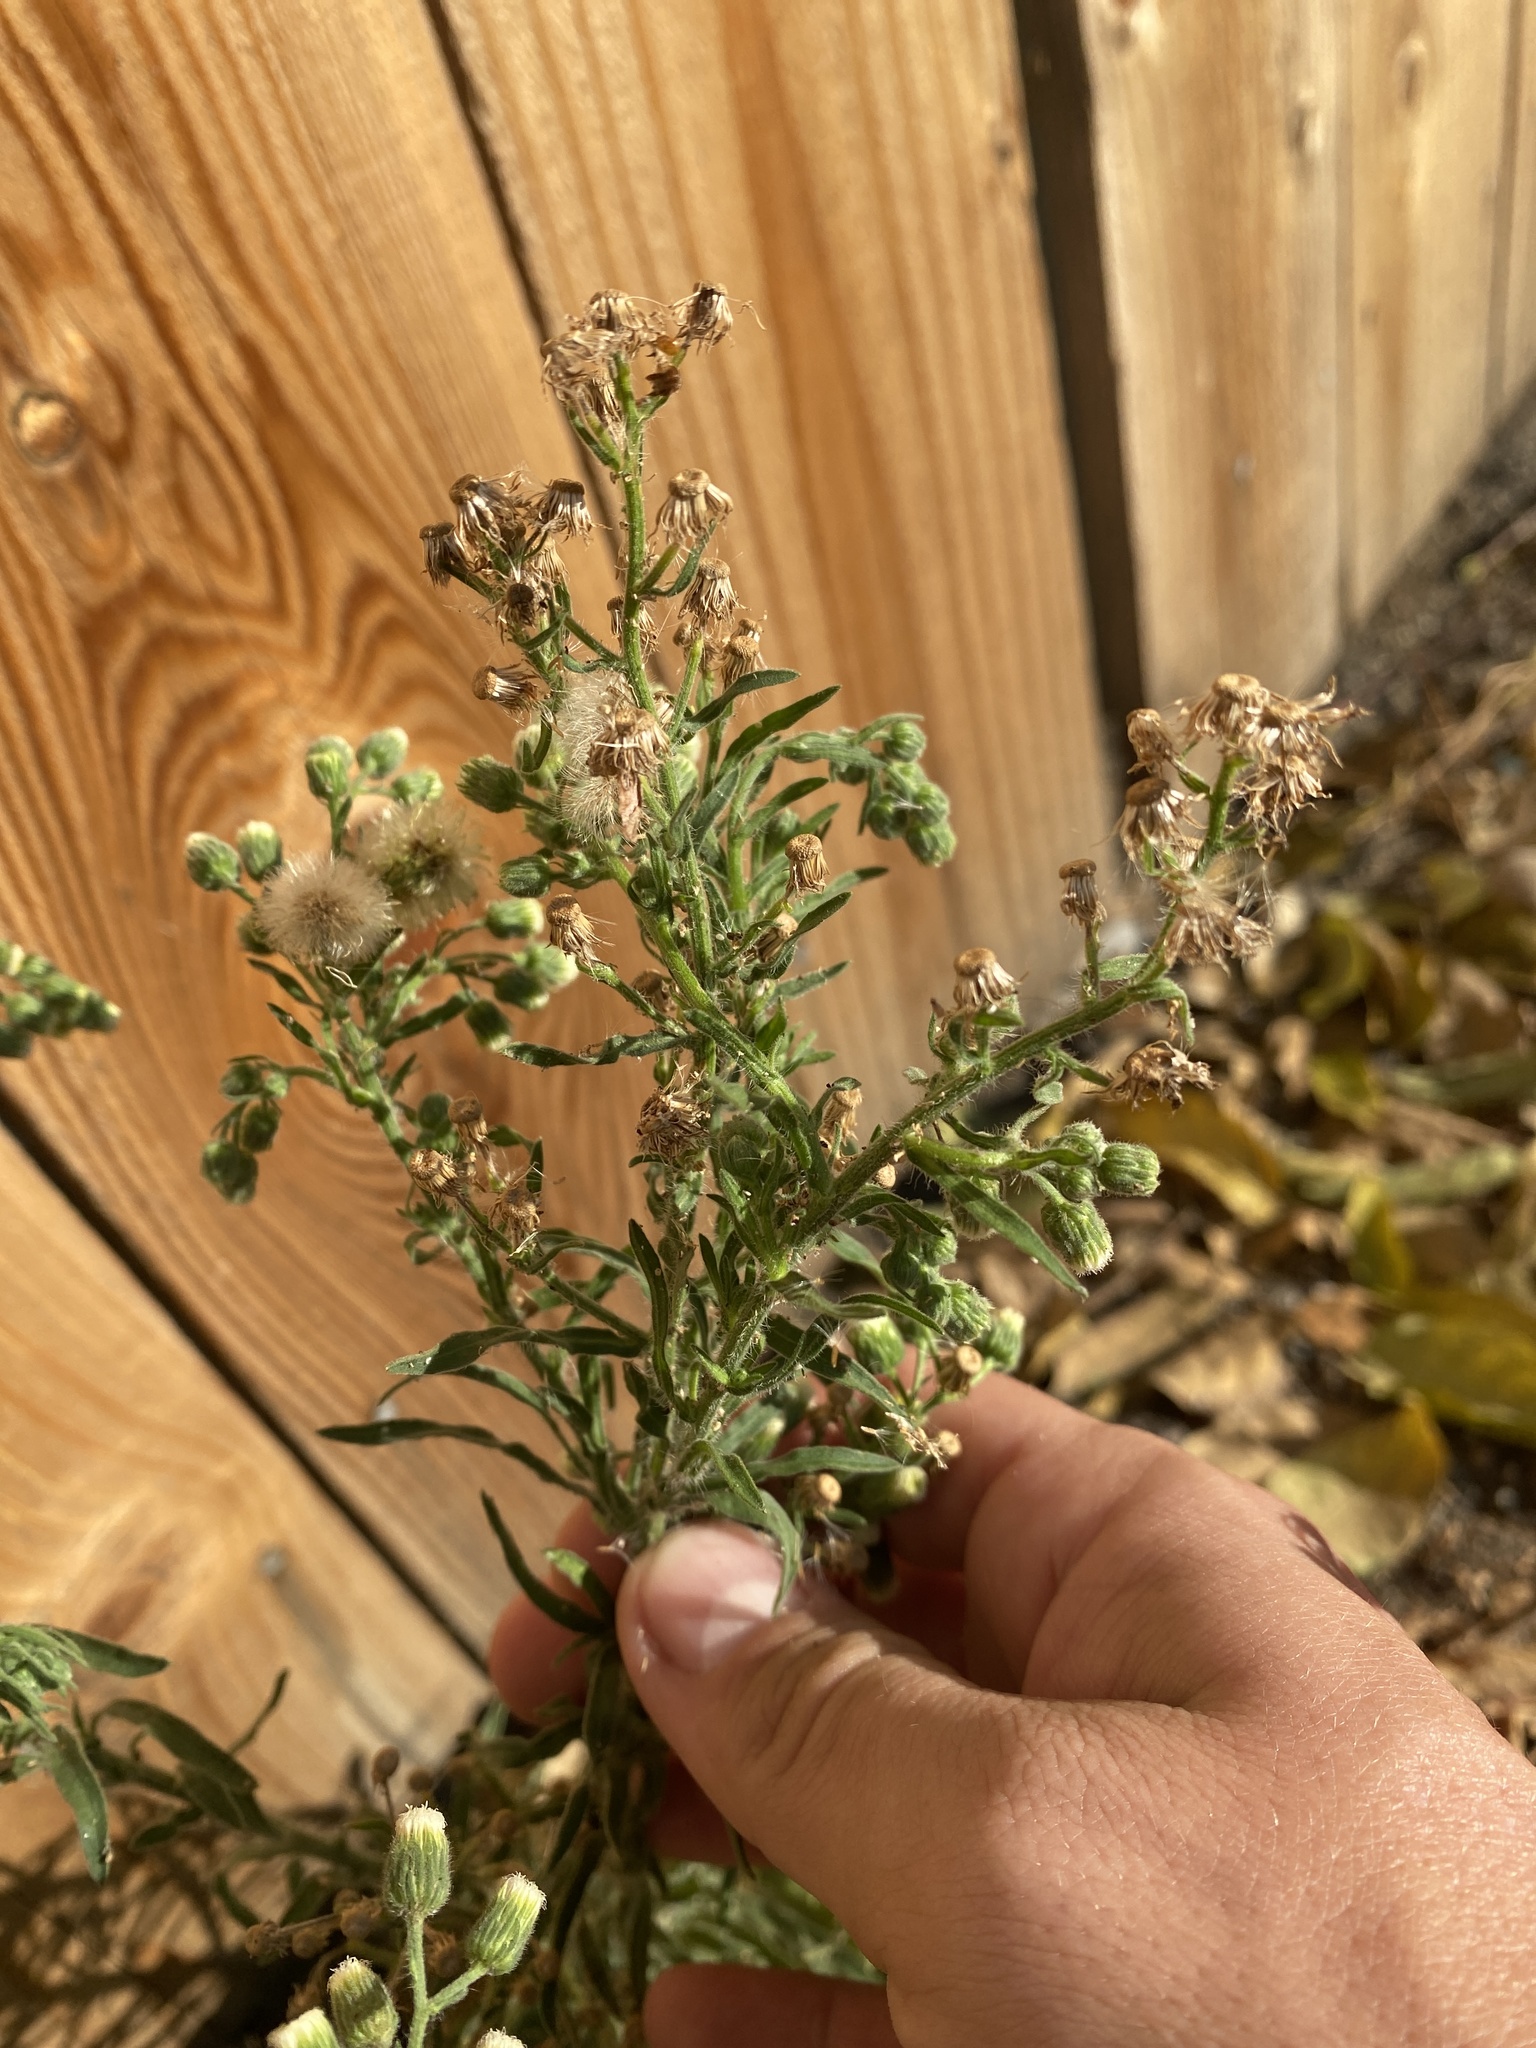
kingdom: Plantae
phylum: Tracheophyta
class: Magnoliopsida
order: Asterales
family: Asteraceae
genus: Erigeron
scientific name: Erigeron bonariensis
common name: Argentine fleabane
